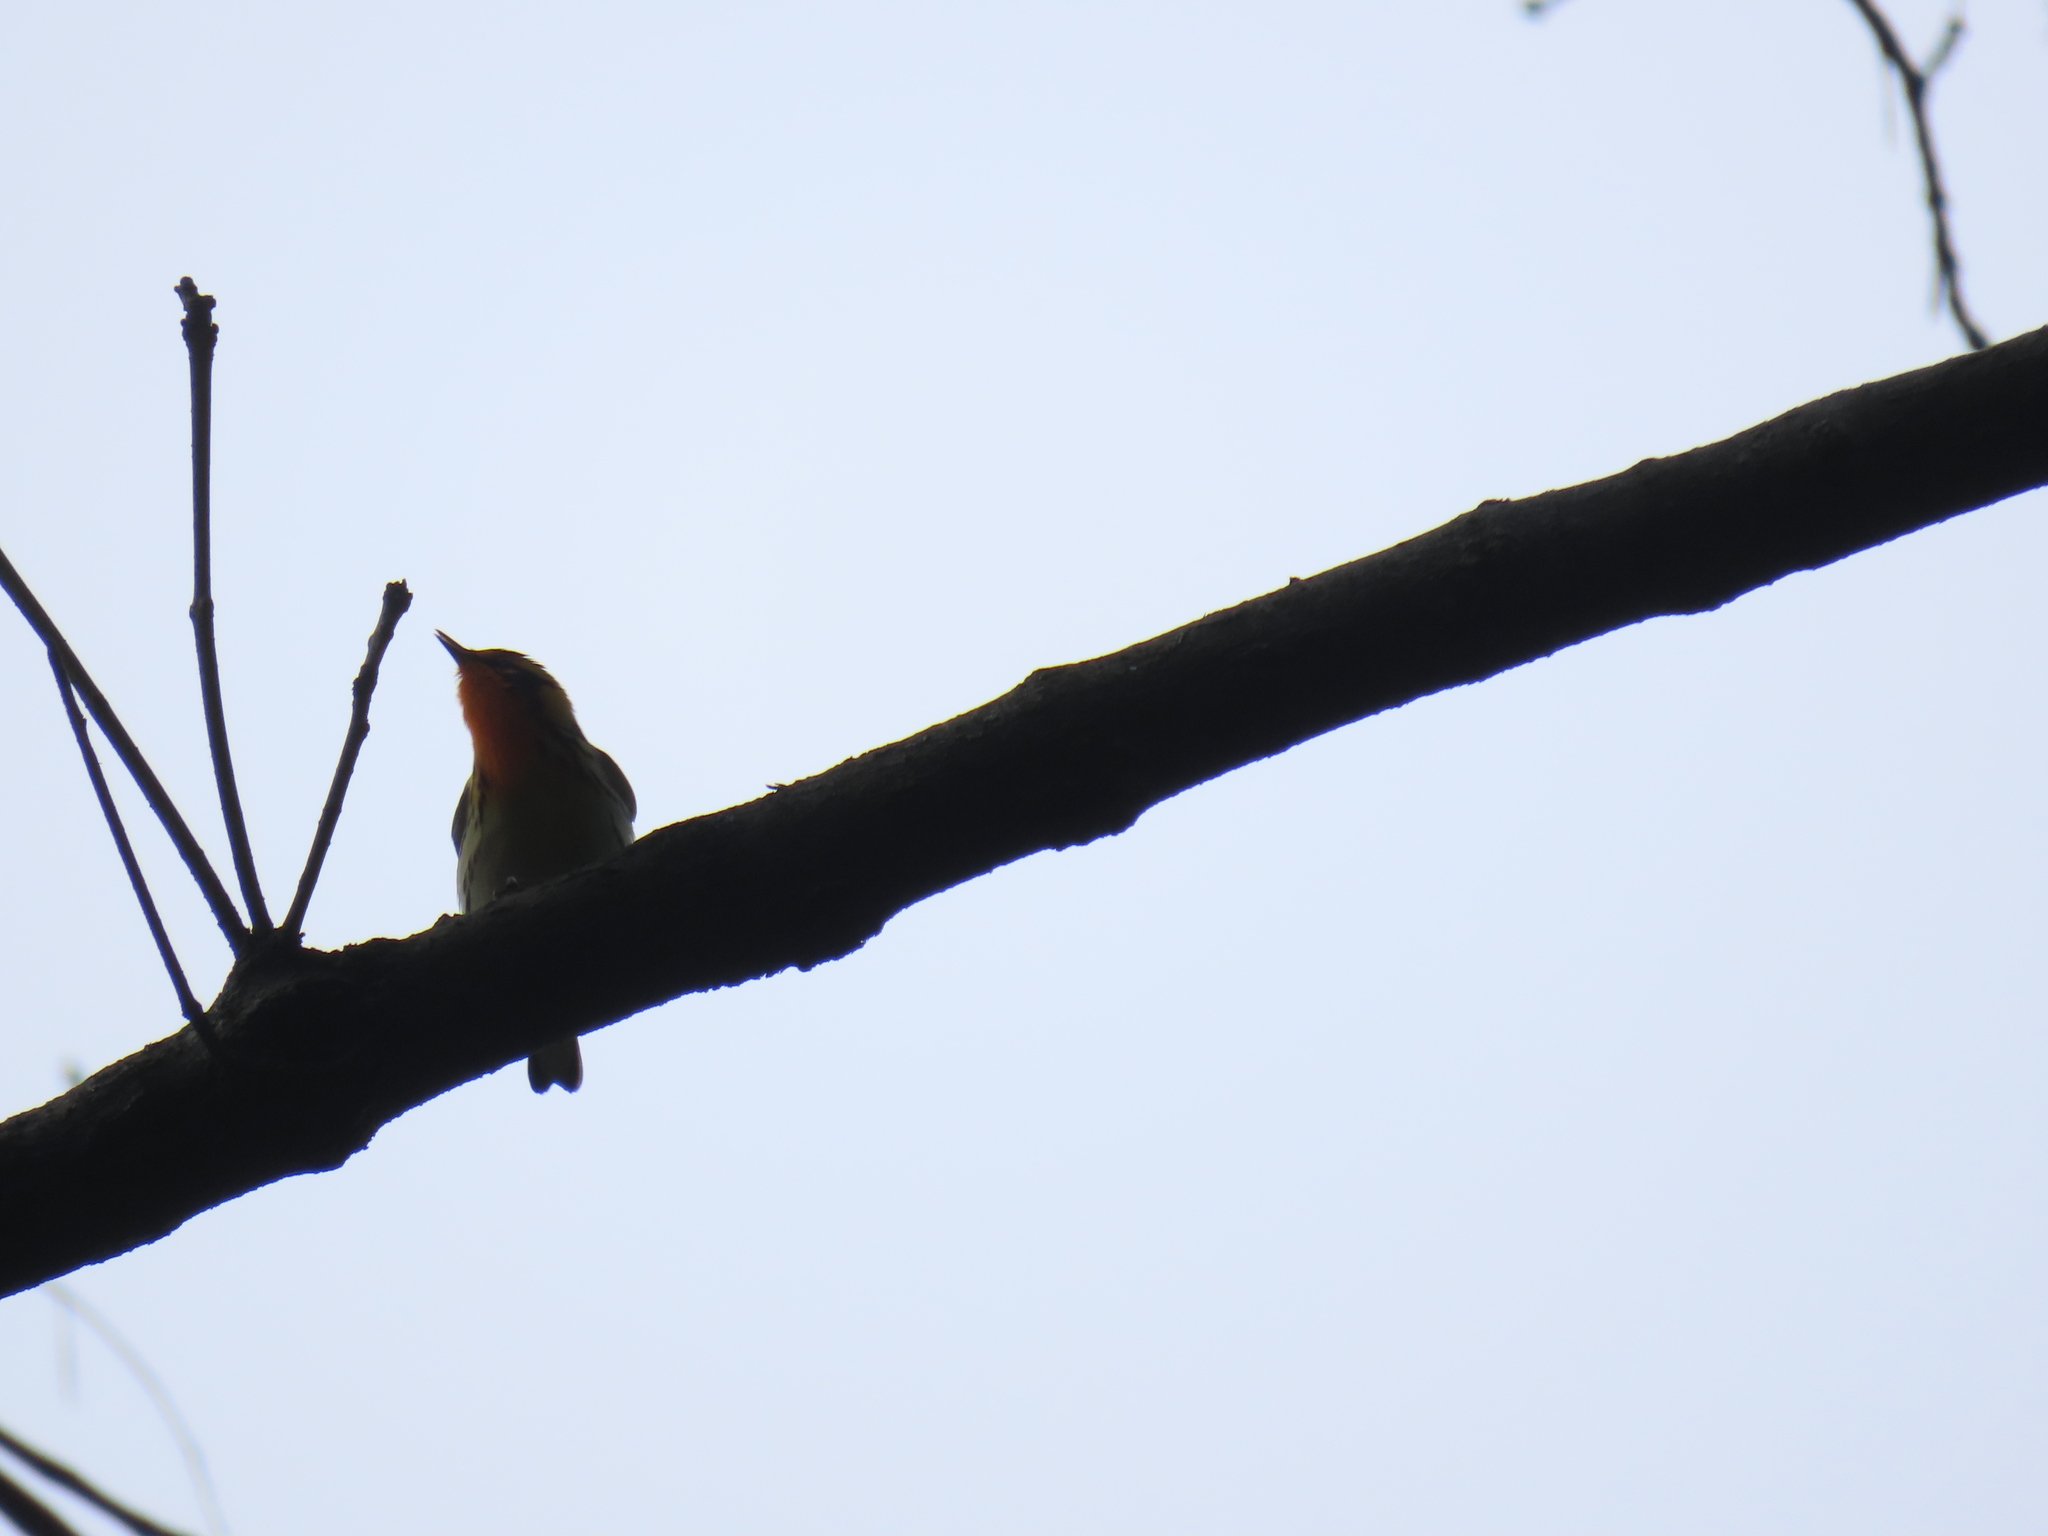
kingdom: Animalia
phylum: Chordata
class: Aves
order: Passeriformes
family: Parulidae
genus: Setophaga
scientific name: Setophaga fusca
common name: Blackburnian warbler
